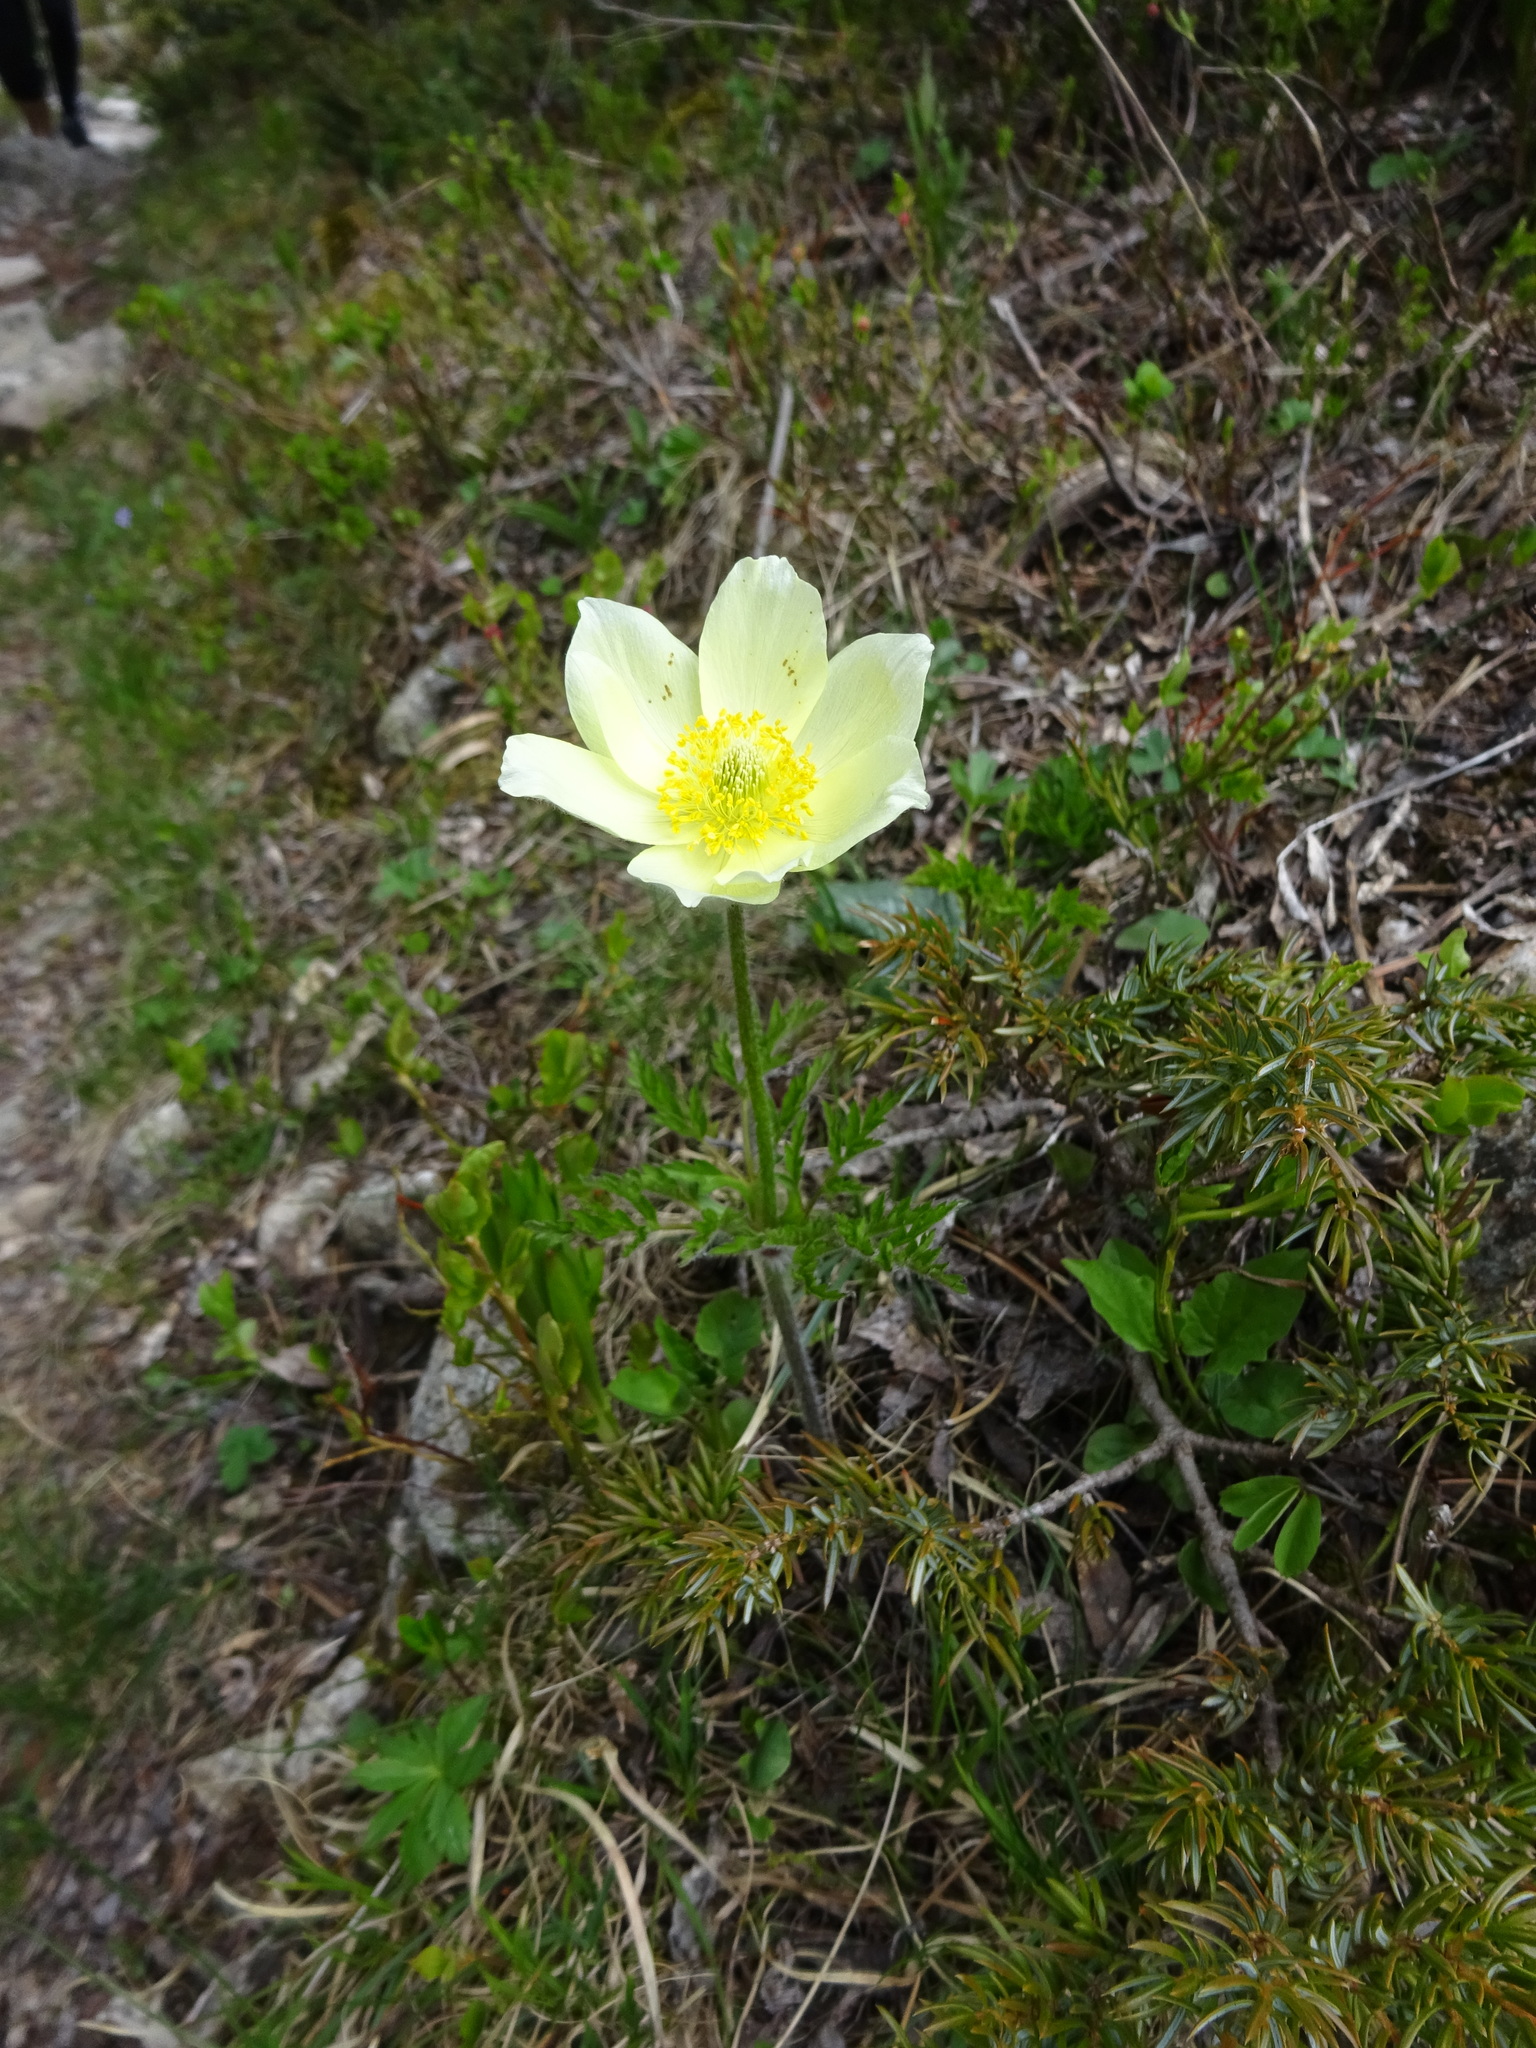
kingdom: Plantae
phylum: Tracheophyta
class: Magnoliopsida
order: Ranunculales
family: Ranunculaceae
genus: Pulsatilla
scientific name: Pulsatilla alpina
